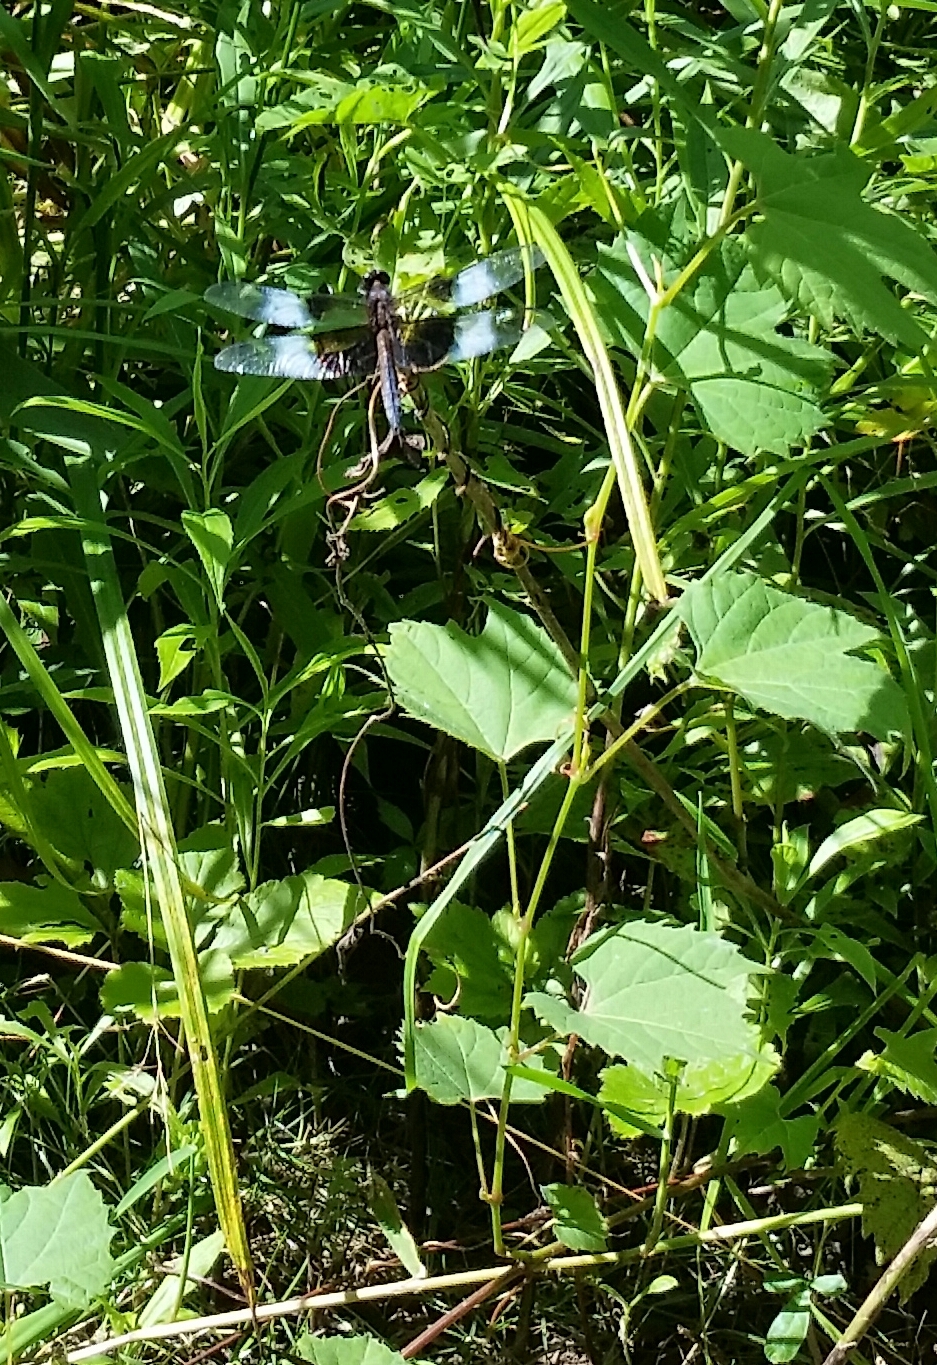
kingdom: Animalia
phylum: Arthropoda
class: Insecta
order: Odonata
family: Libellulidae
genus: Libellula
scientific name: Libellula luctuosa
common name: Widow skimmer
